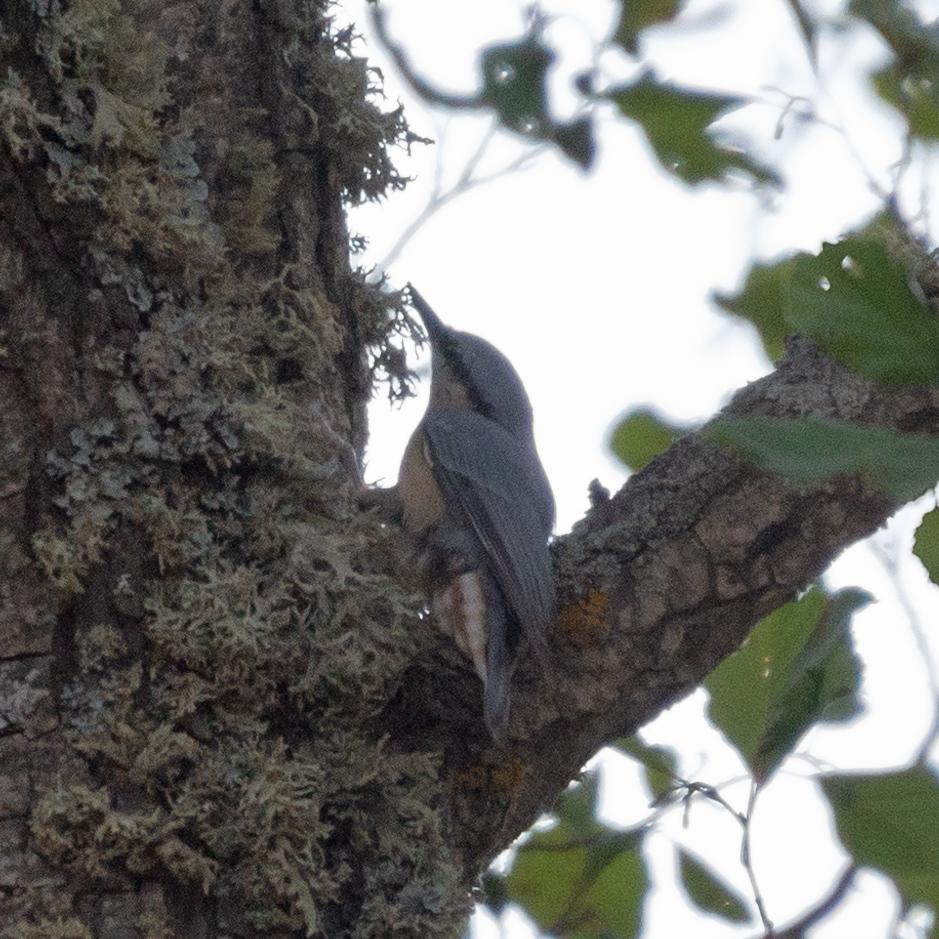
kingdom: Animalia
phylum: Chordata
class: Aves
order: Passeriformes
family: Sittidae
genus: Sitta
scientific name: Sitta europaea
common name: Eurasian nuthatch
